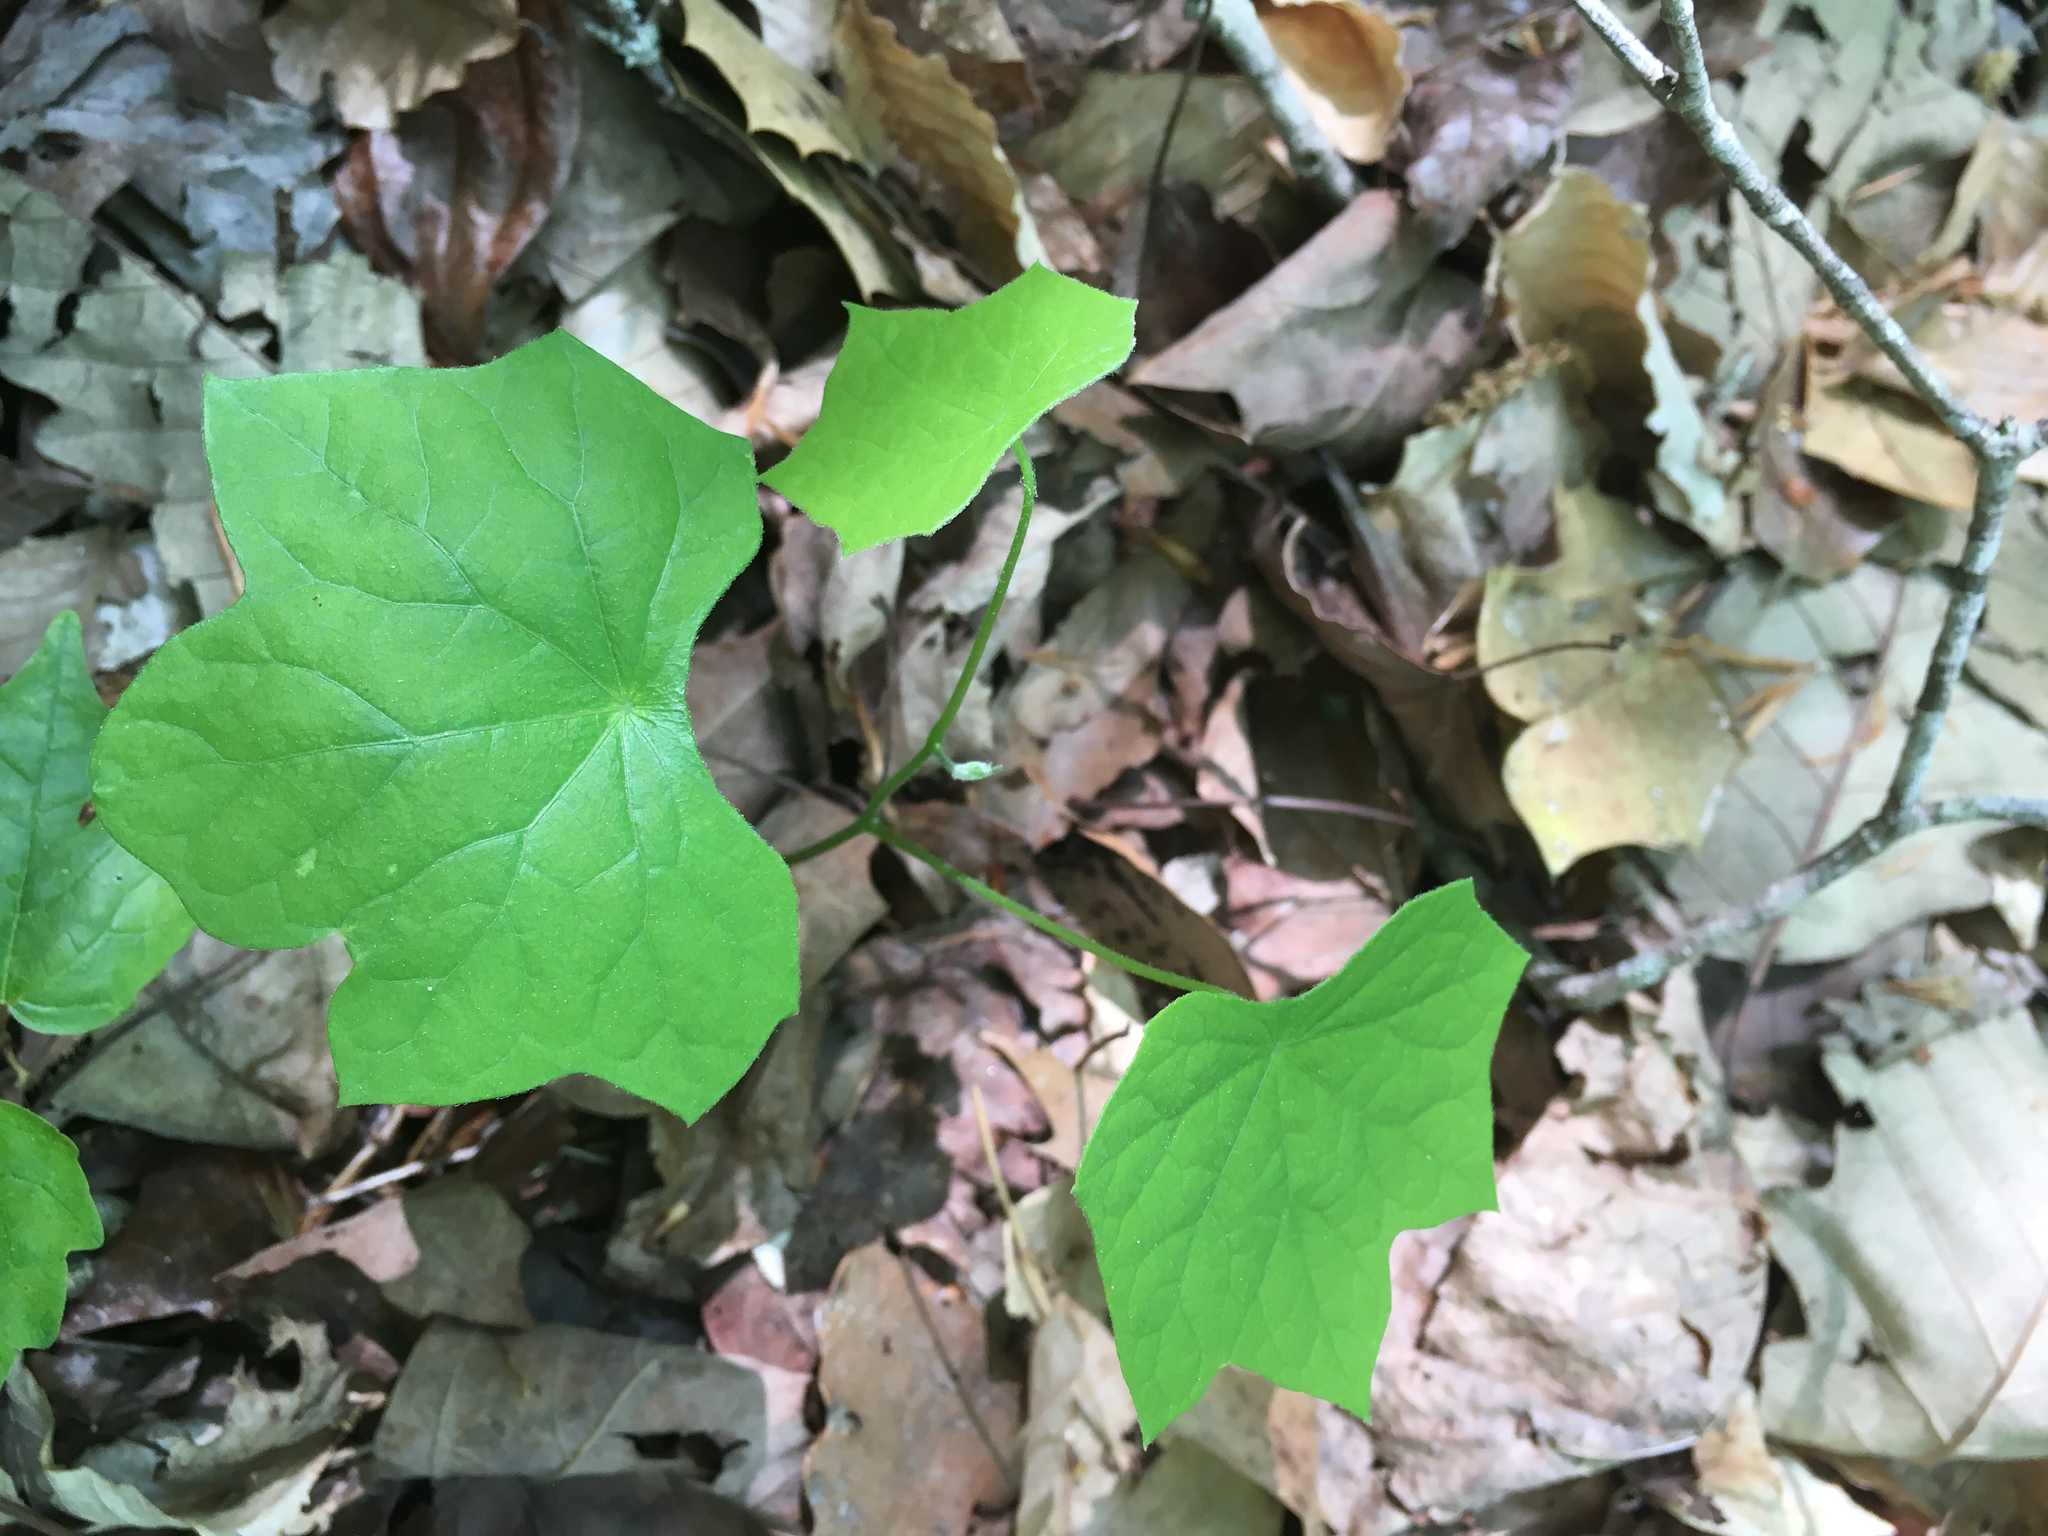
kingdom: Plantae
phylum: Tracheophyta
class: Magnoliopsida
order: Ranunculales
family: Menispermaceae
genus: Menispermum
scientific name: Menispermum canadense
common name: Moonseed
